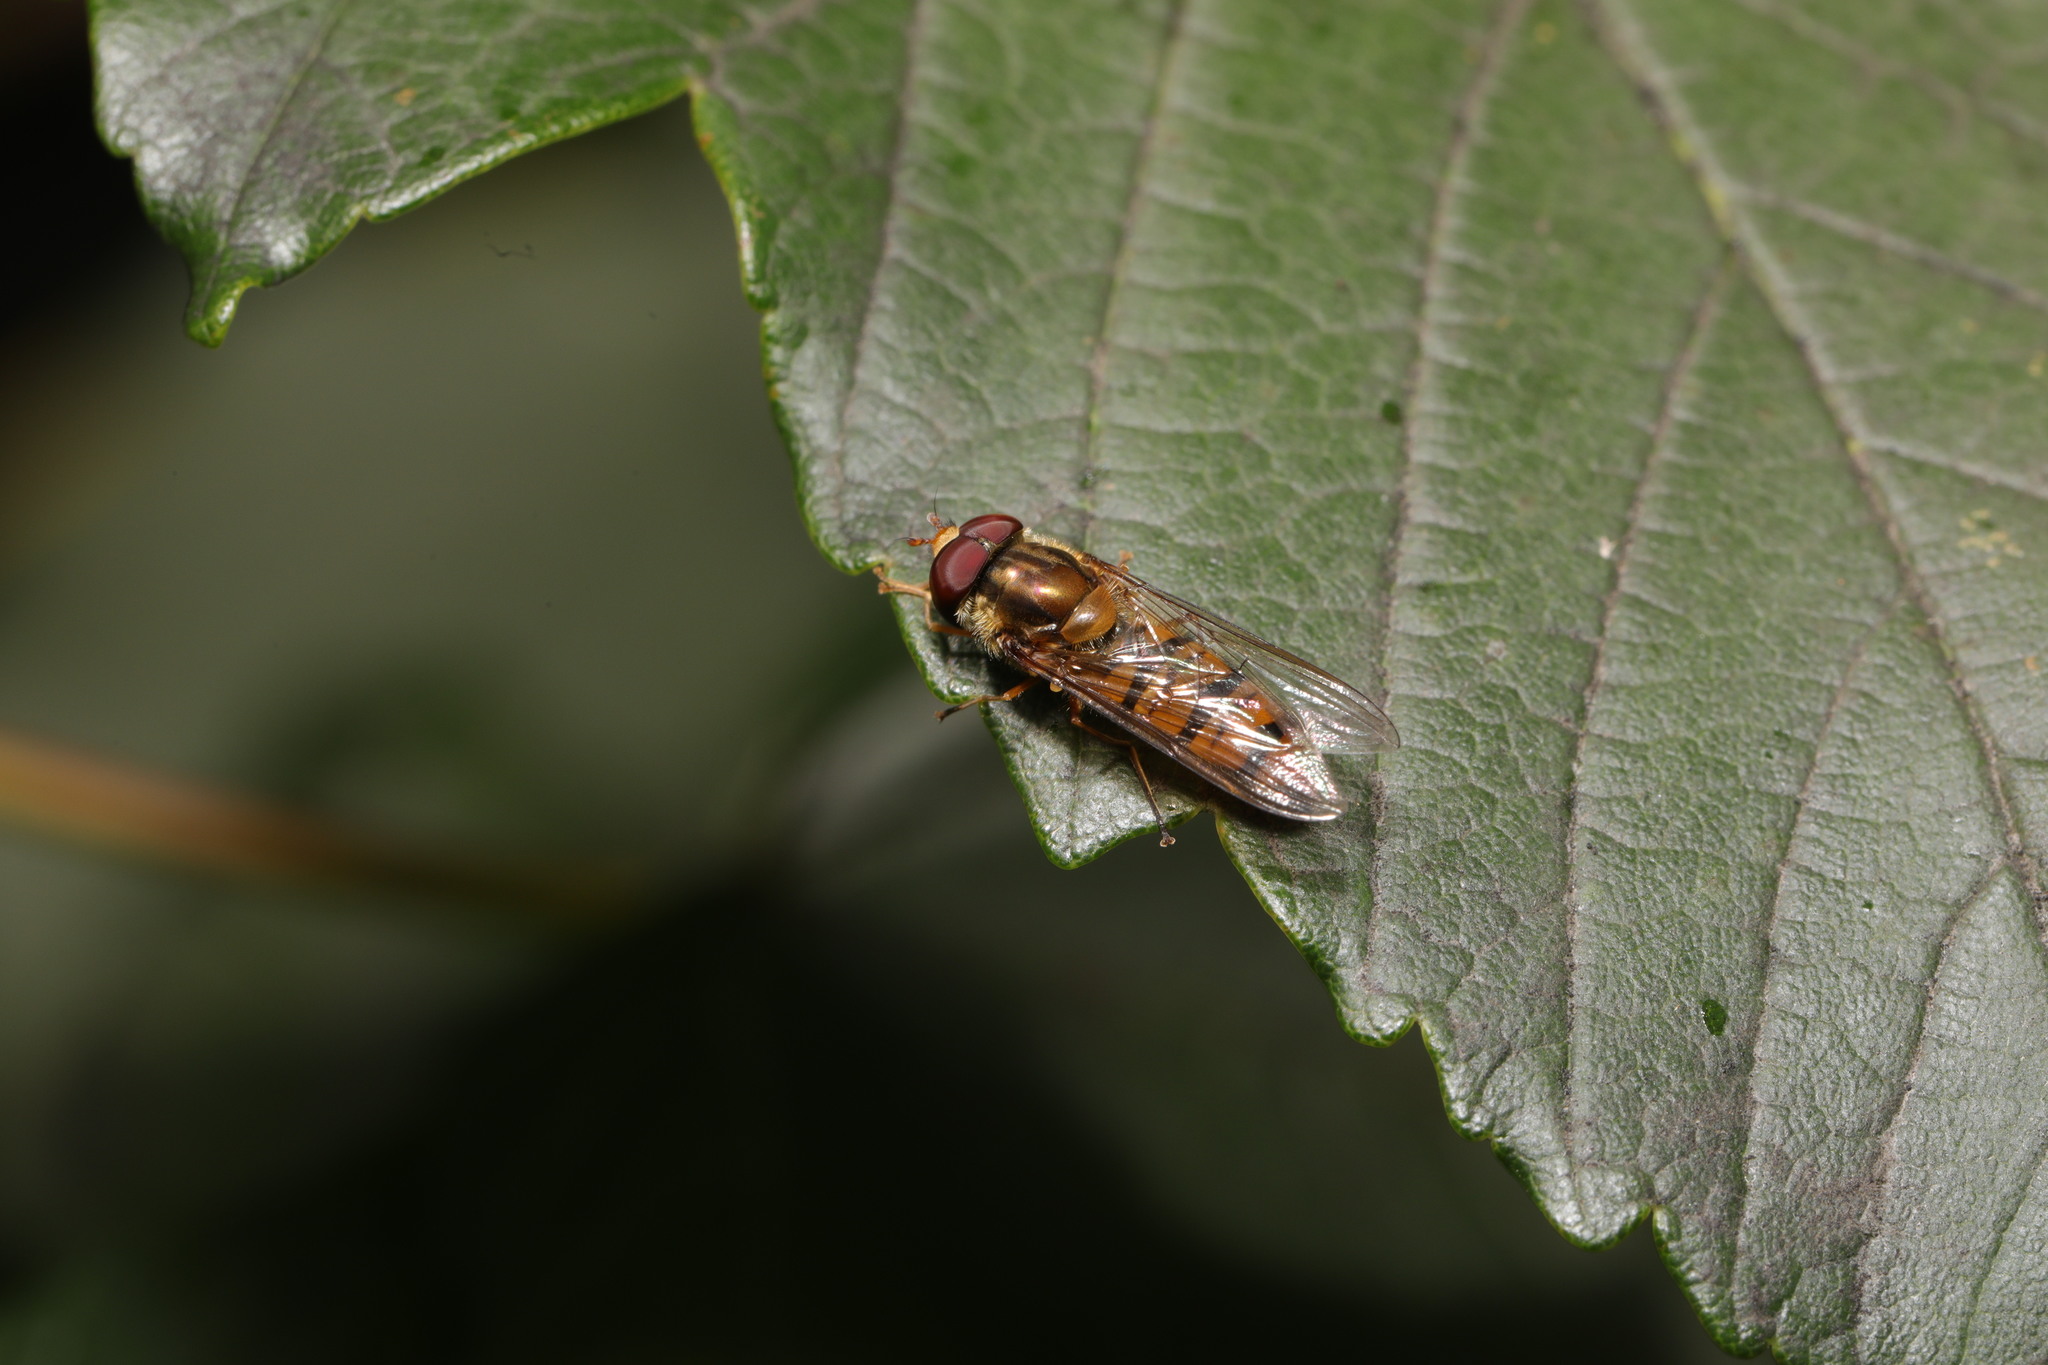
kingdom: Animalia
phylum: Arthropoda
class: Insecta
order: Diptera
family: Syrphidae
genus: Episyrphus
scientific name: Episyrphus balteatus
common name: Marmalade hoverfly
